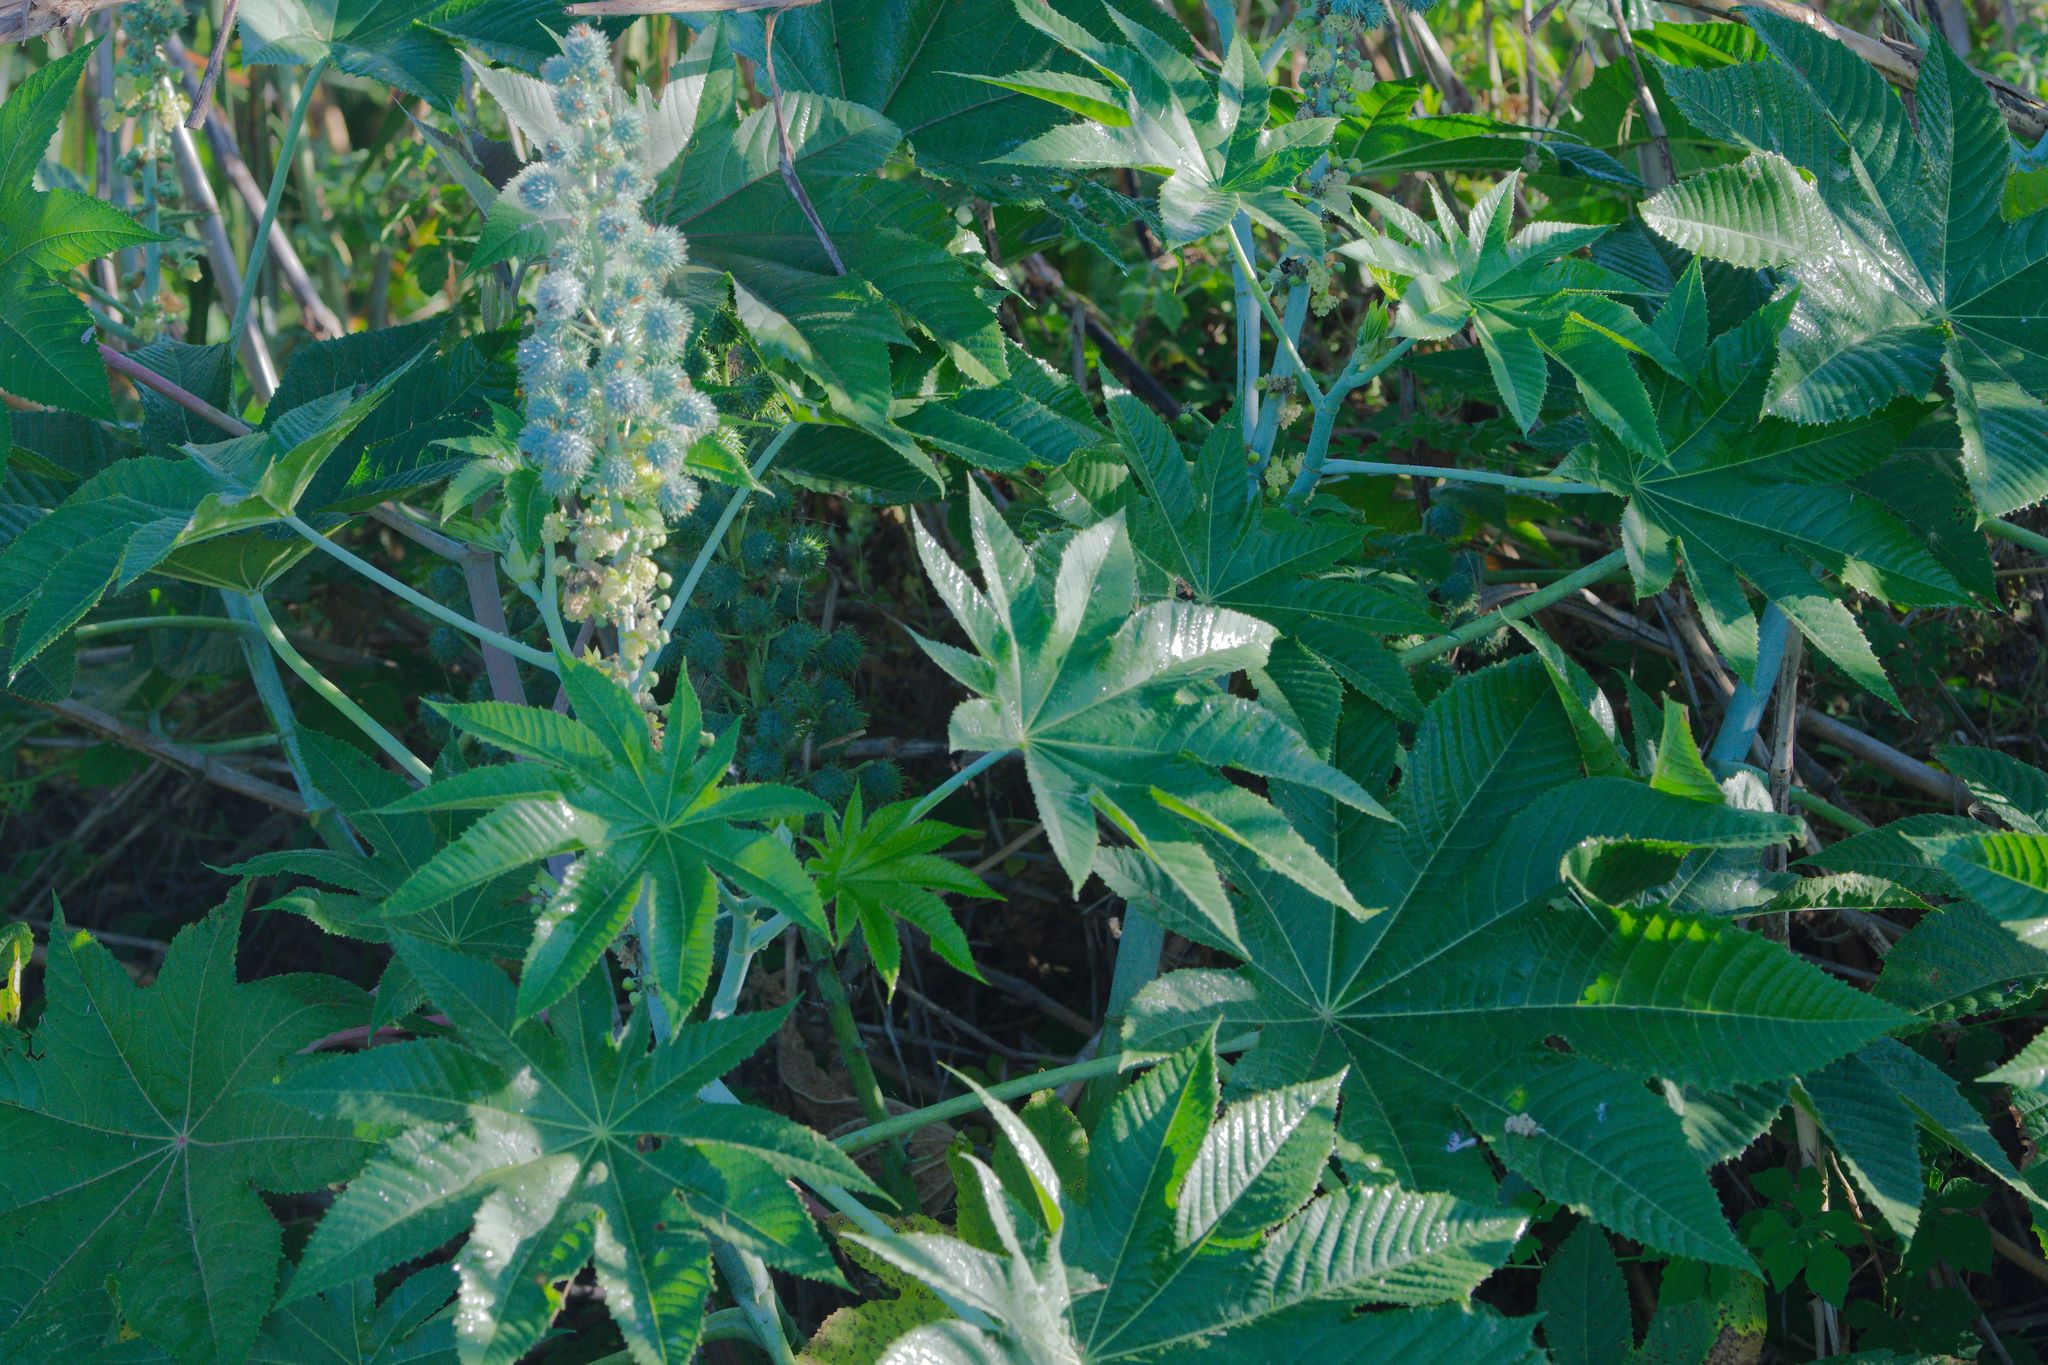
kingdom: Plantae
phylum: Tracheophyta
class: Magnoliopsida
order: Malpighiales
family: Euphorbiaceae
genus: Ricinus
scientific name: Ricinus communis
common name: Castor-oil-plant
